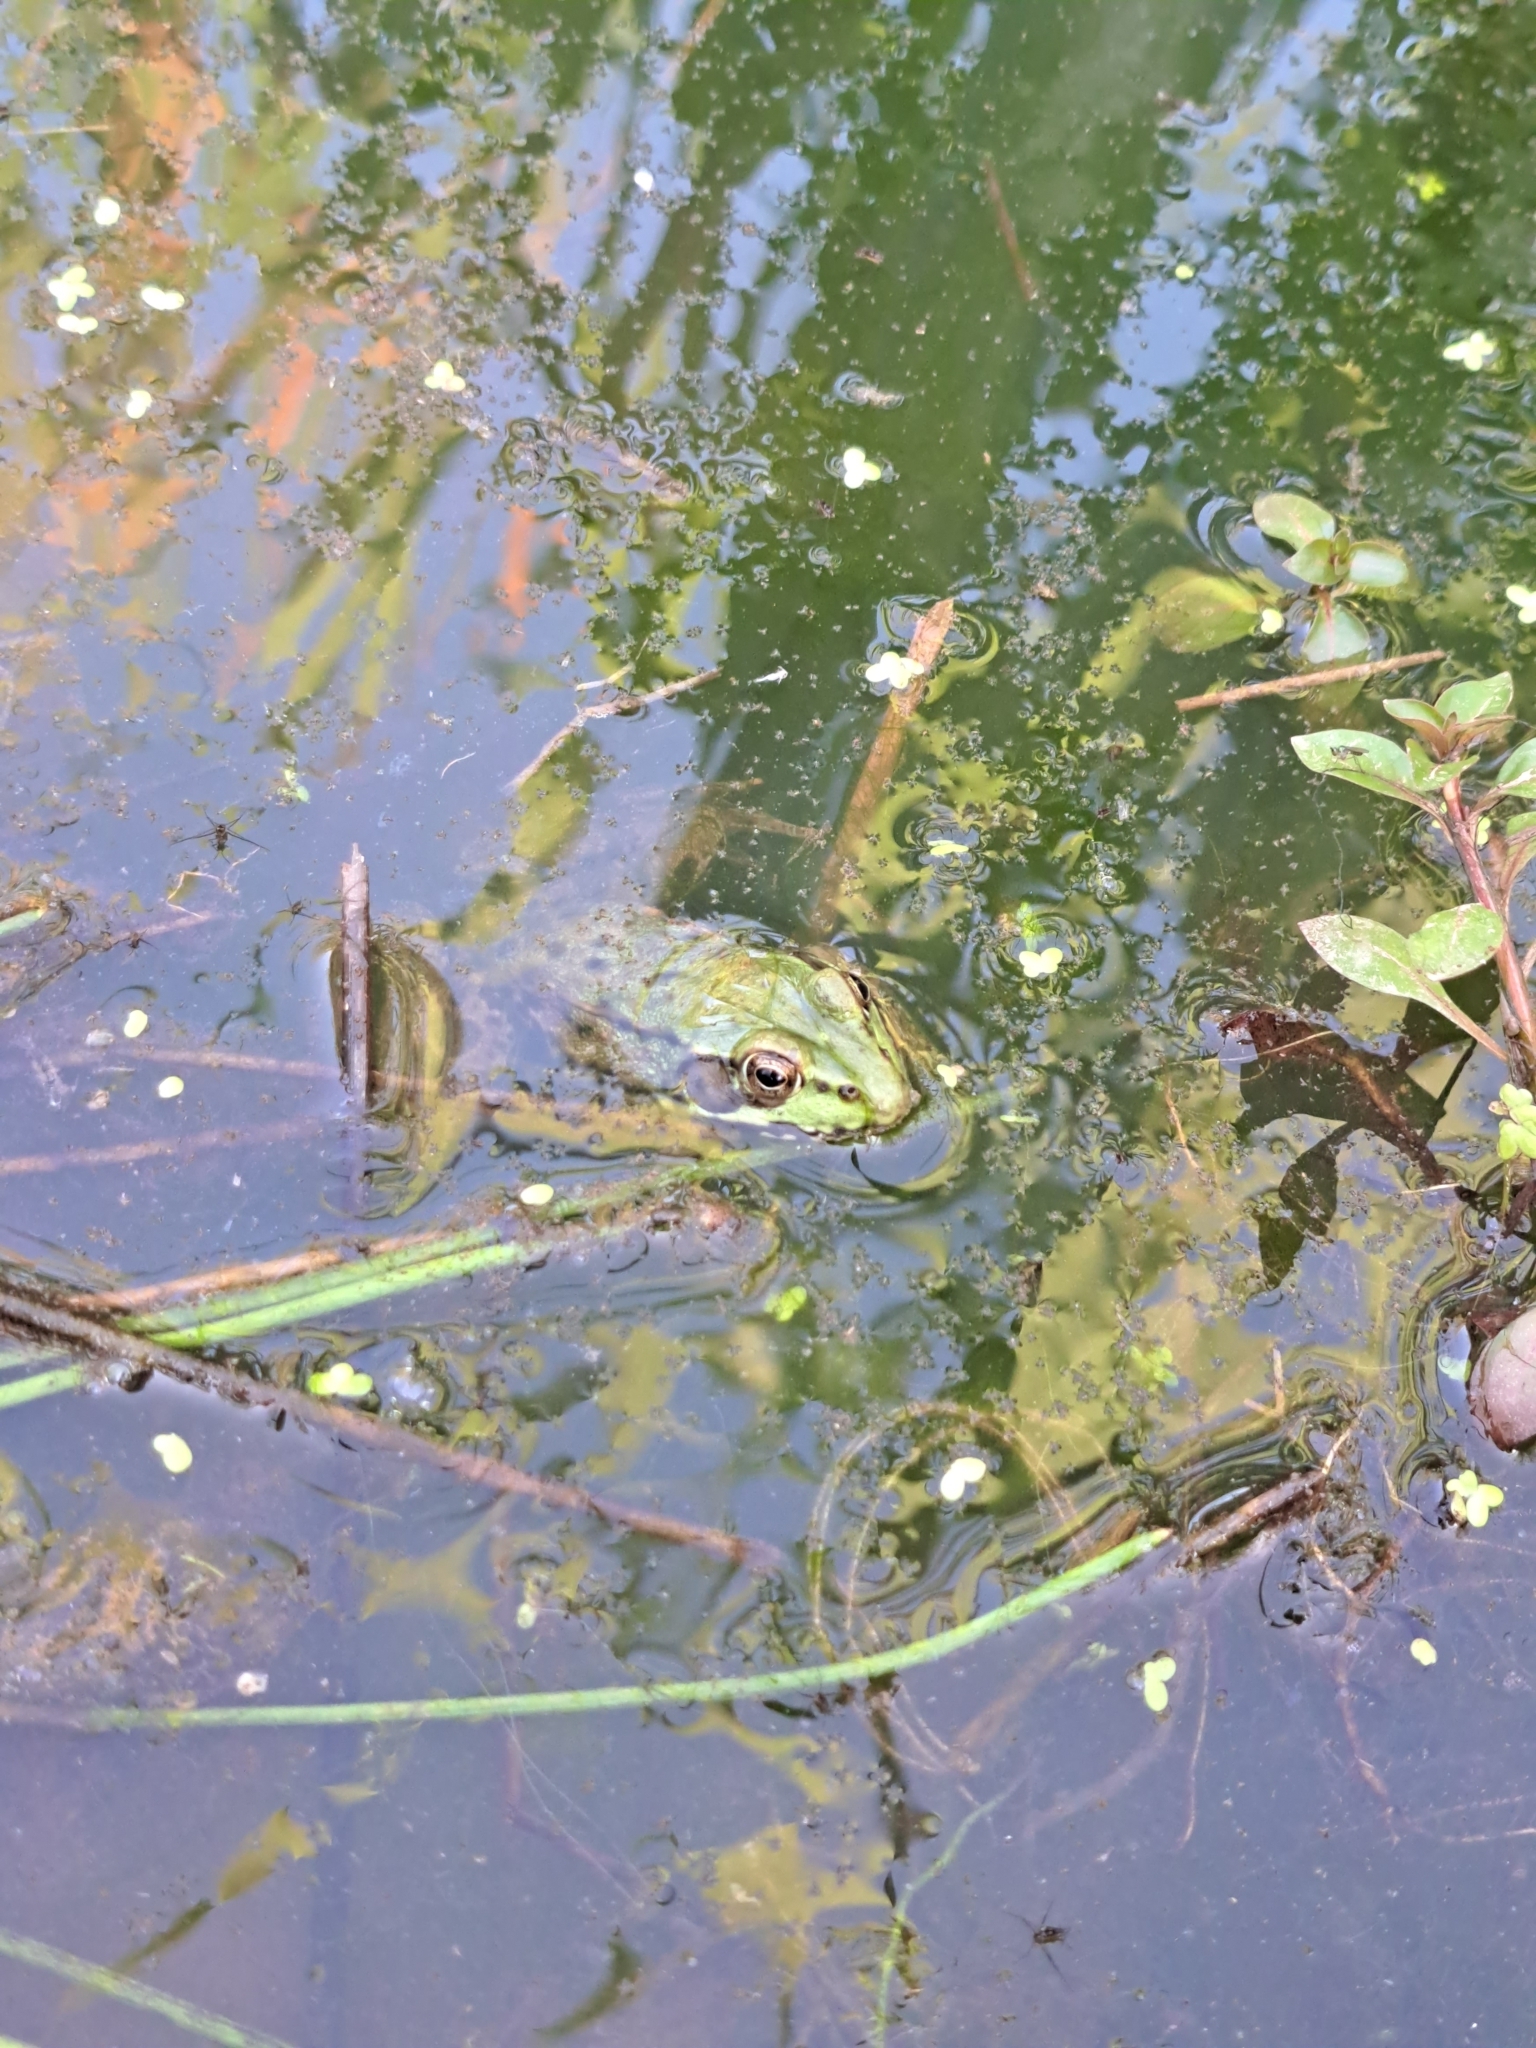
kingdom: Animalia
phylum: Chordata
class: Amphibia
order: Anura
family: Ranidae
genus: Lithobates
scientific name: Lithobates clamitans
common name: Green frog
